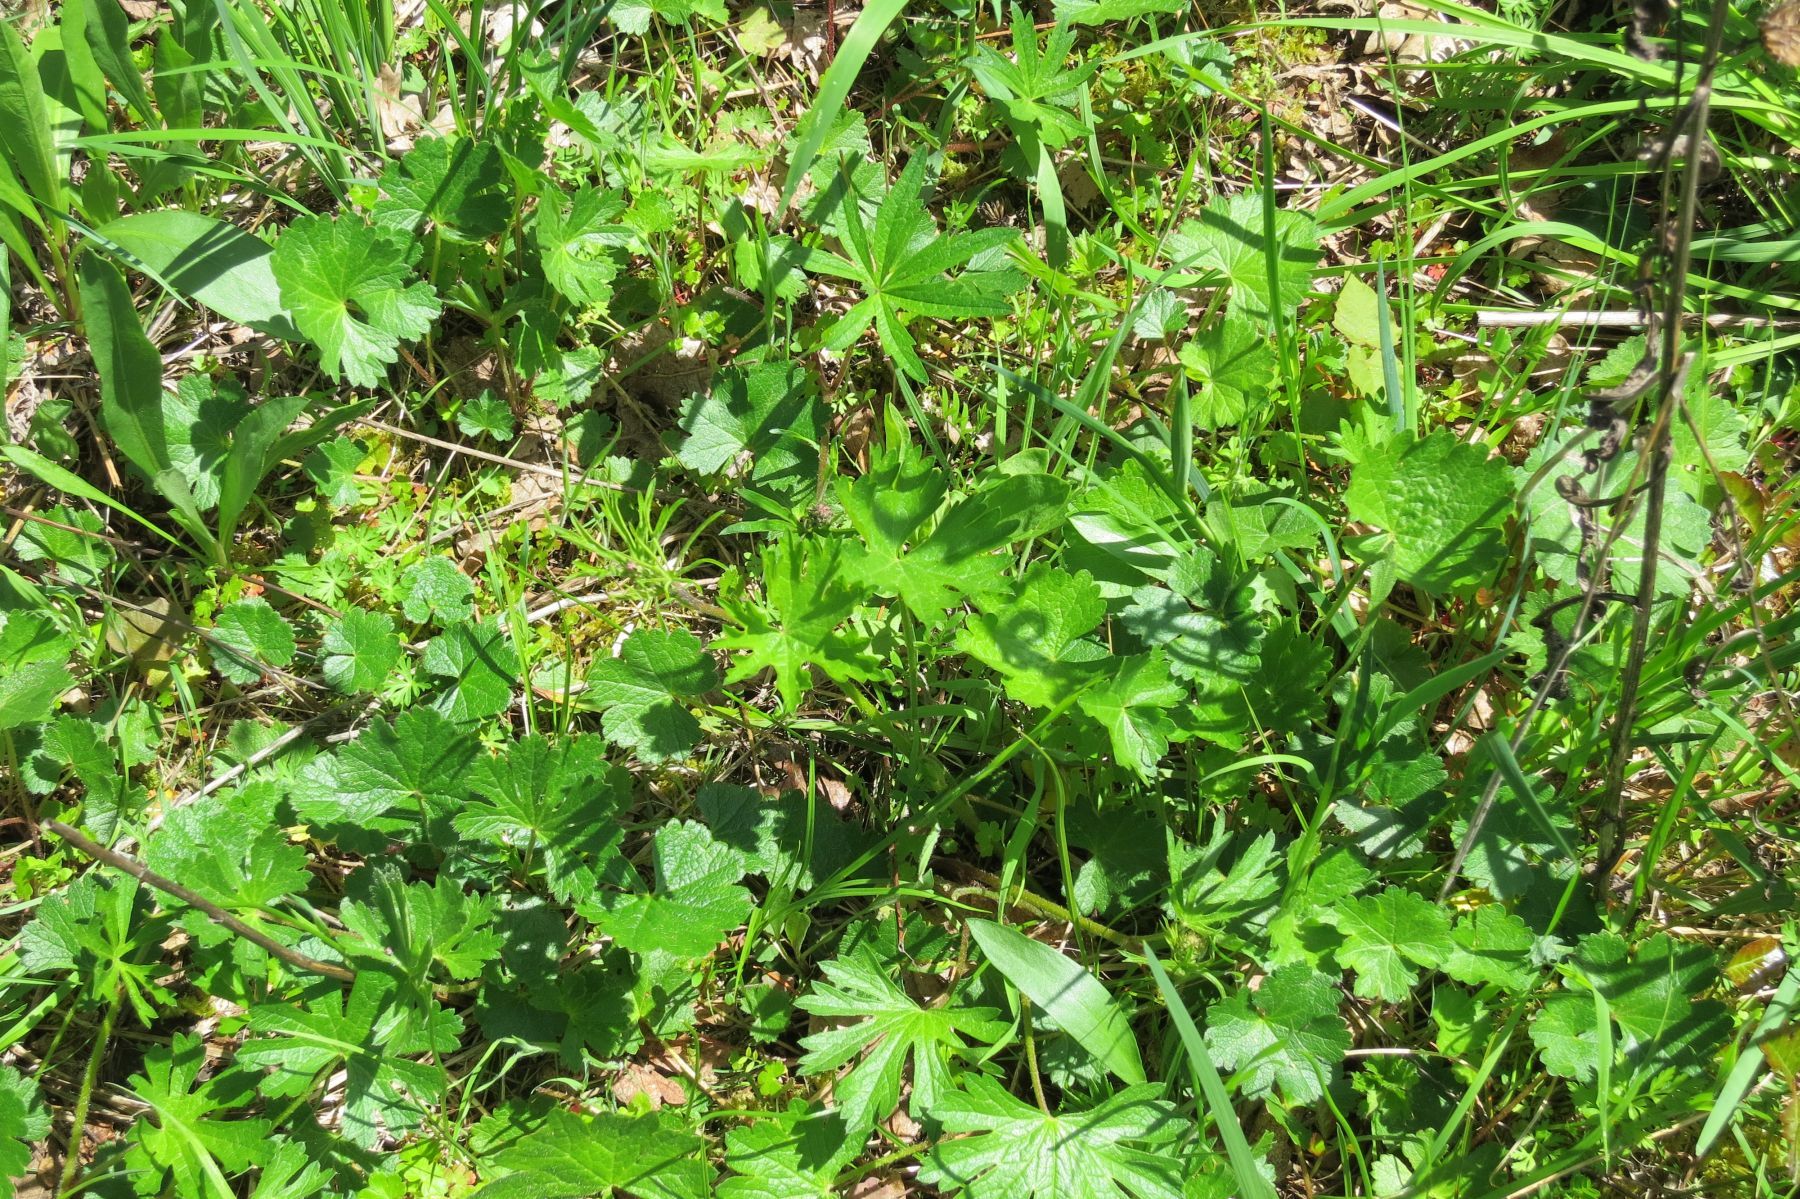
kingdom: Plantae
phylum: Tracheophyta
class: Magnoliopsida
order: Malvales
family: Malvaceae
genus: Sidalcea
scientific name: Sidalcea asprella
